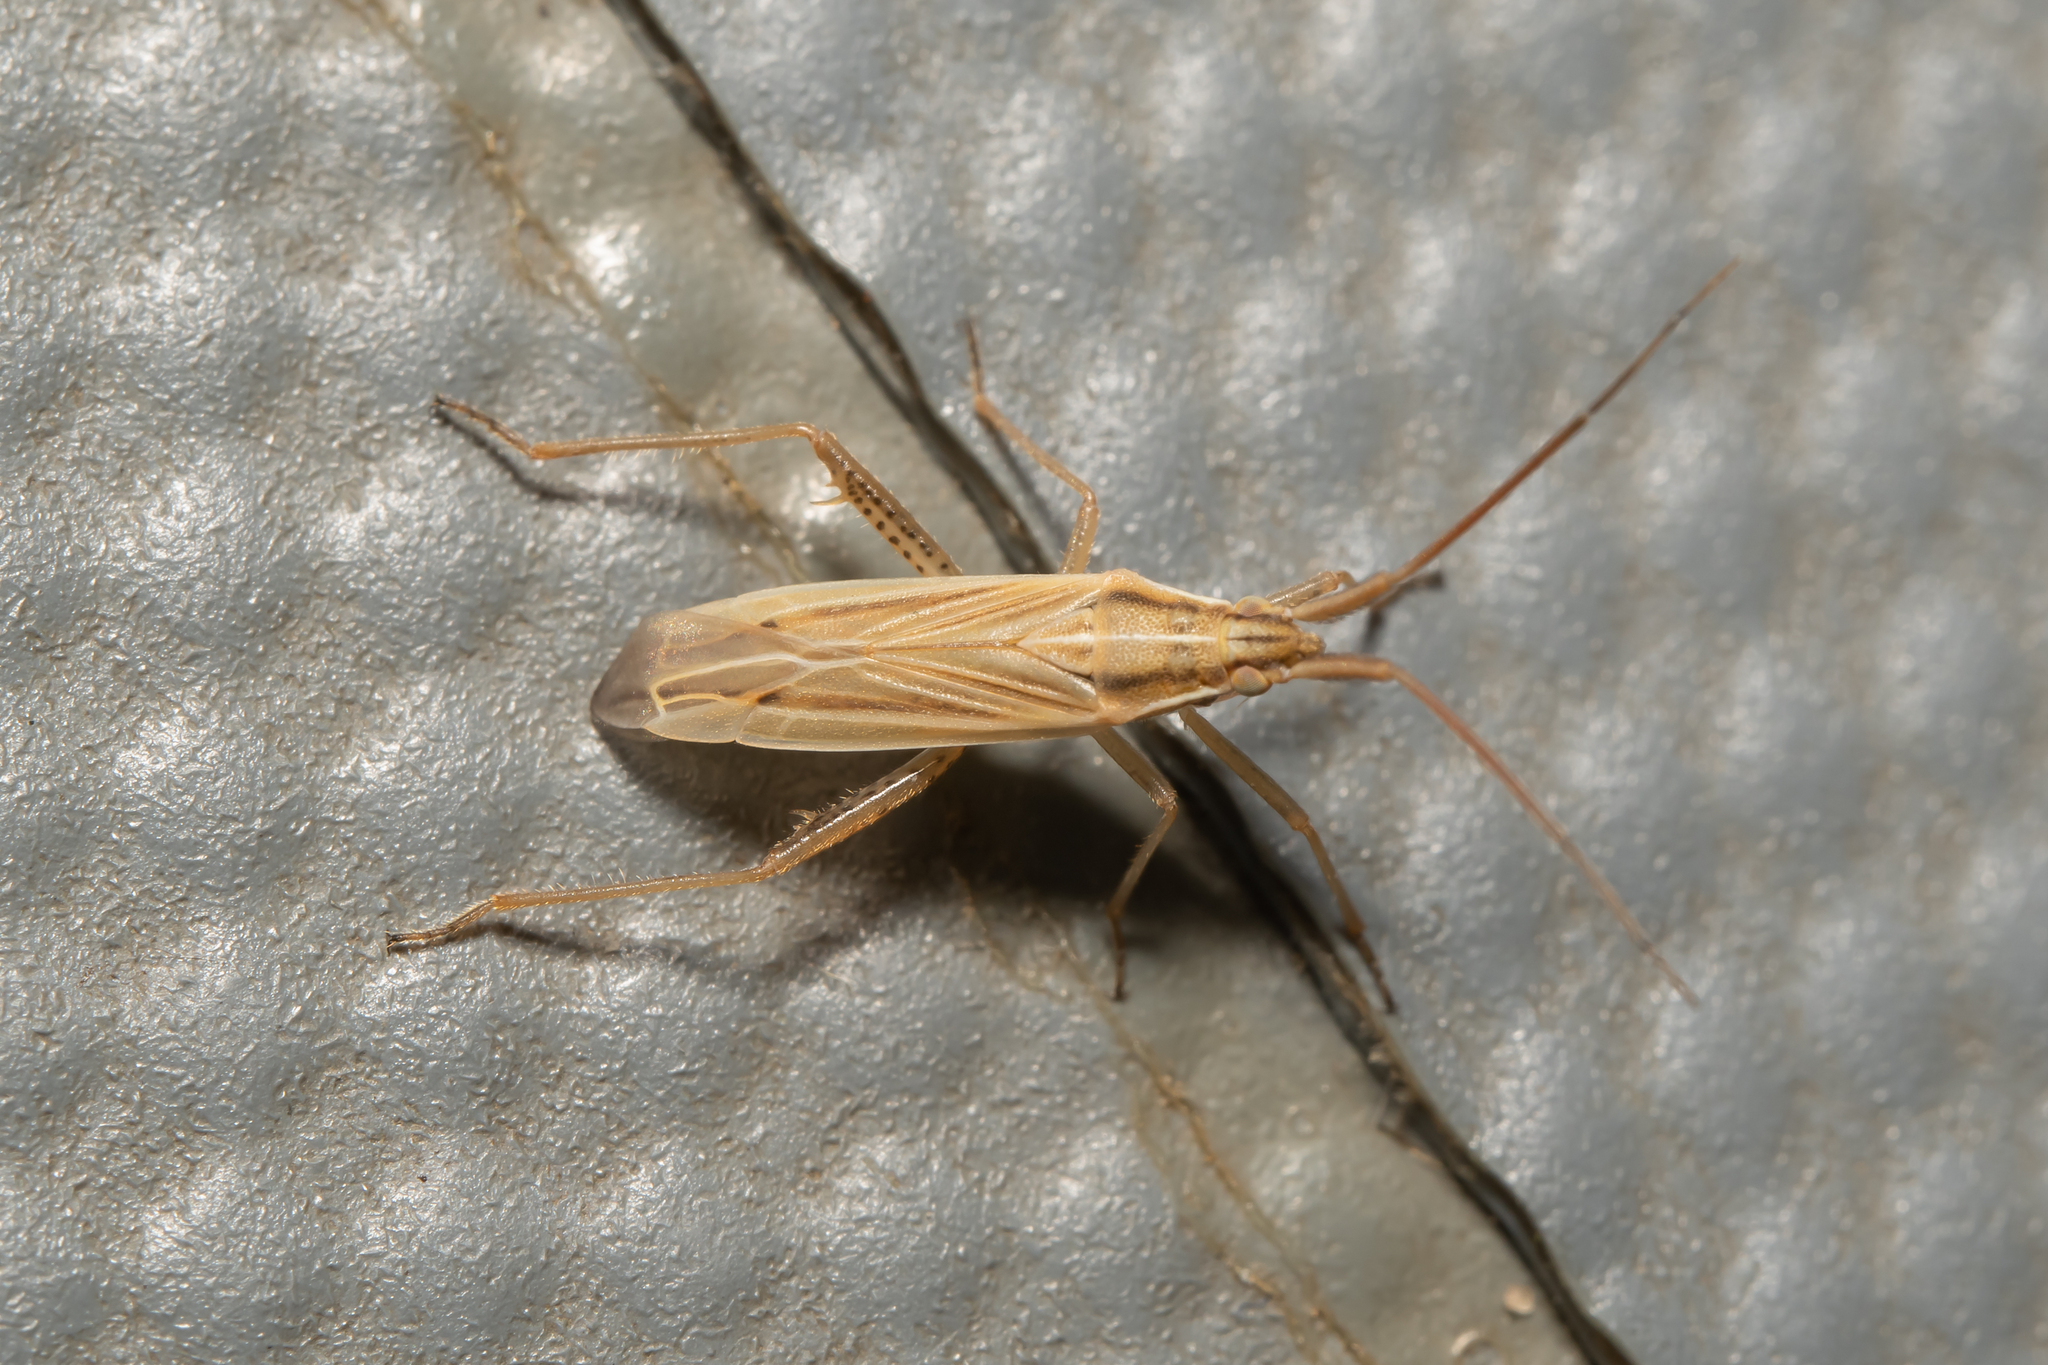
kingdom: Animalia
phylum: Arthropoda
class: Insecta
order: Hemiptera
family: Miridae
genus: Stenodema
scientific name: Stenodema calcarata
